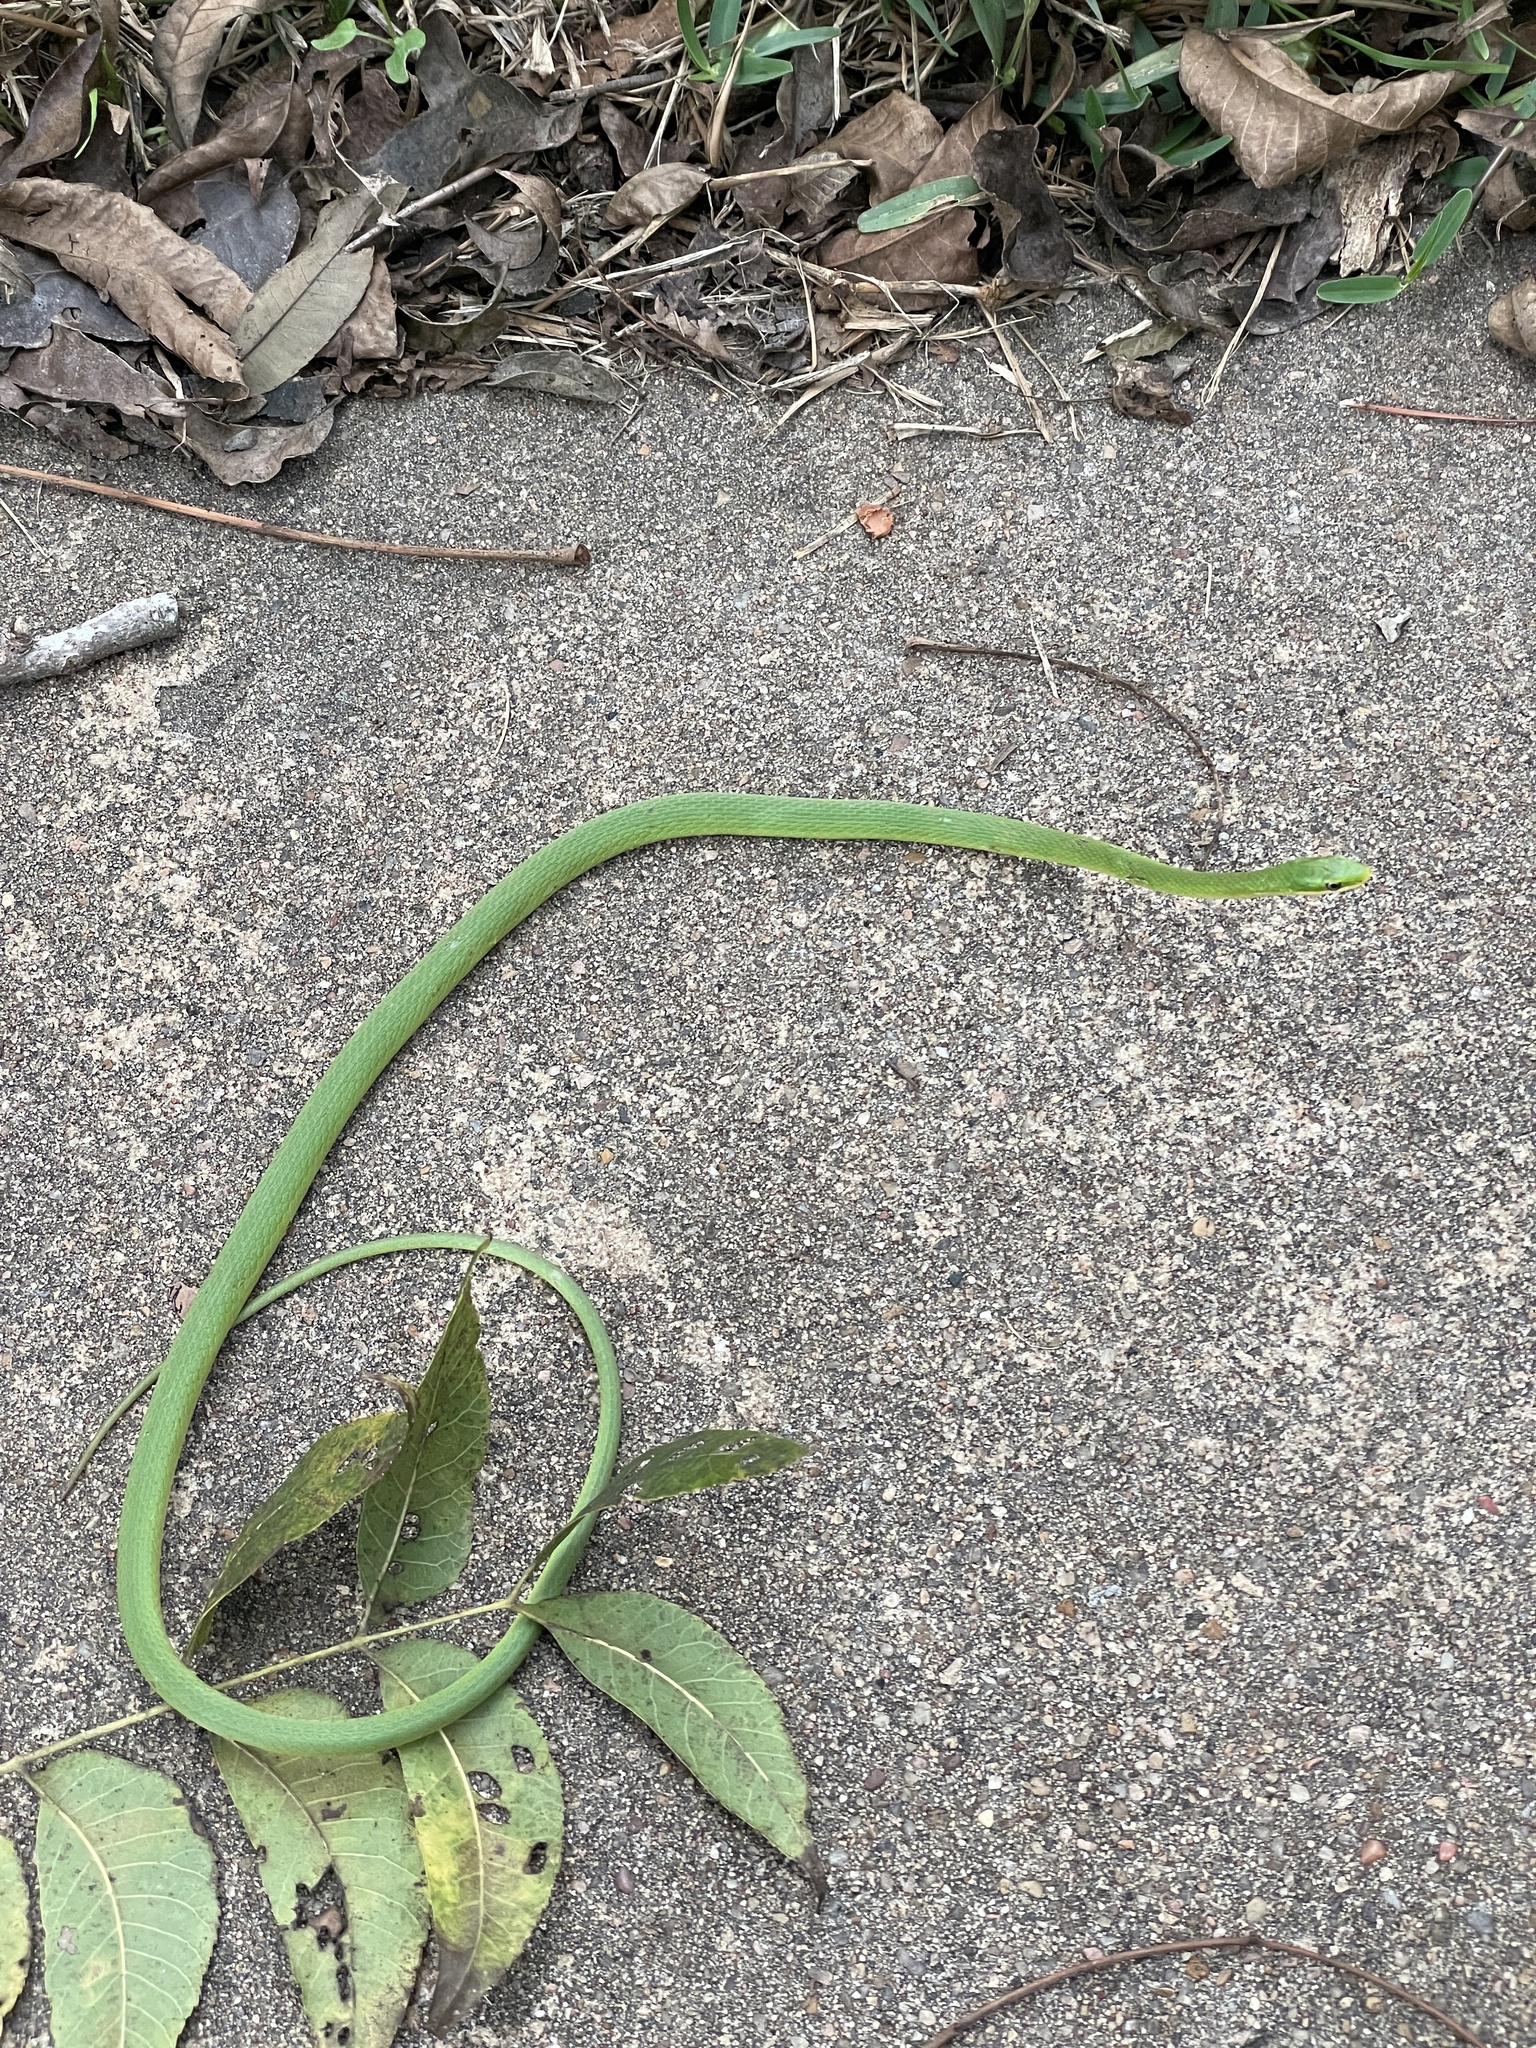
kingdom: Animalia
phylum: Chordata
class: Squamata
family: Colubridae
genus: Opheodrys
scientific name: Opheodrys aestivus
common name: Rough greensnake
